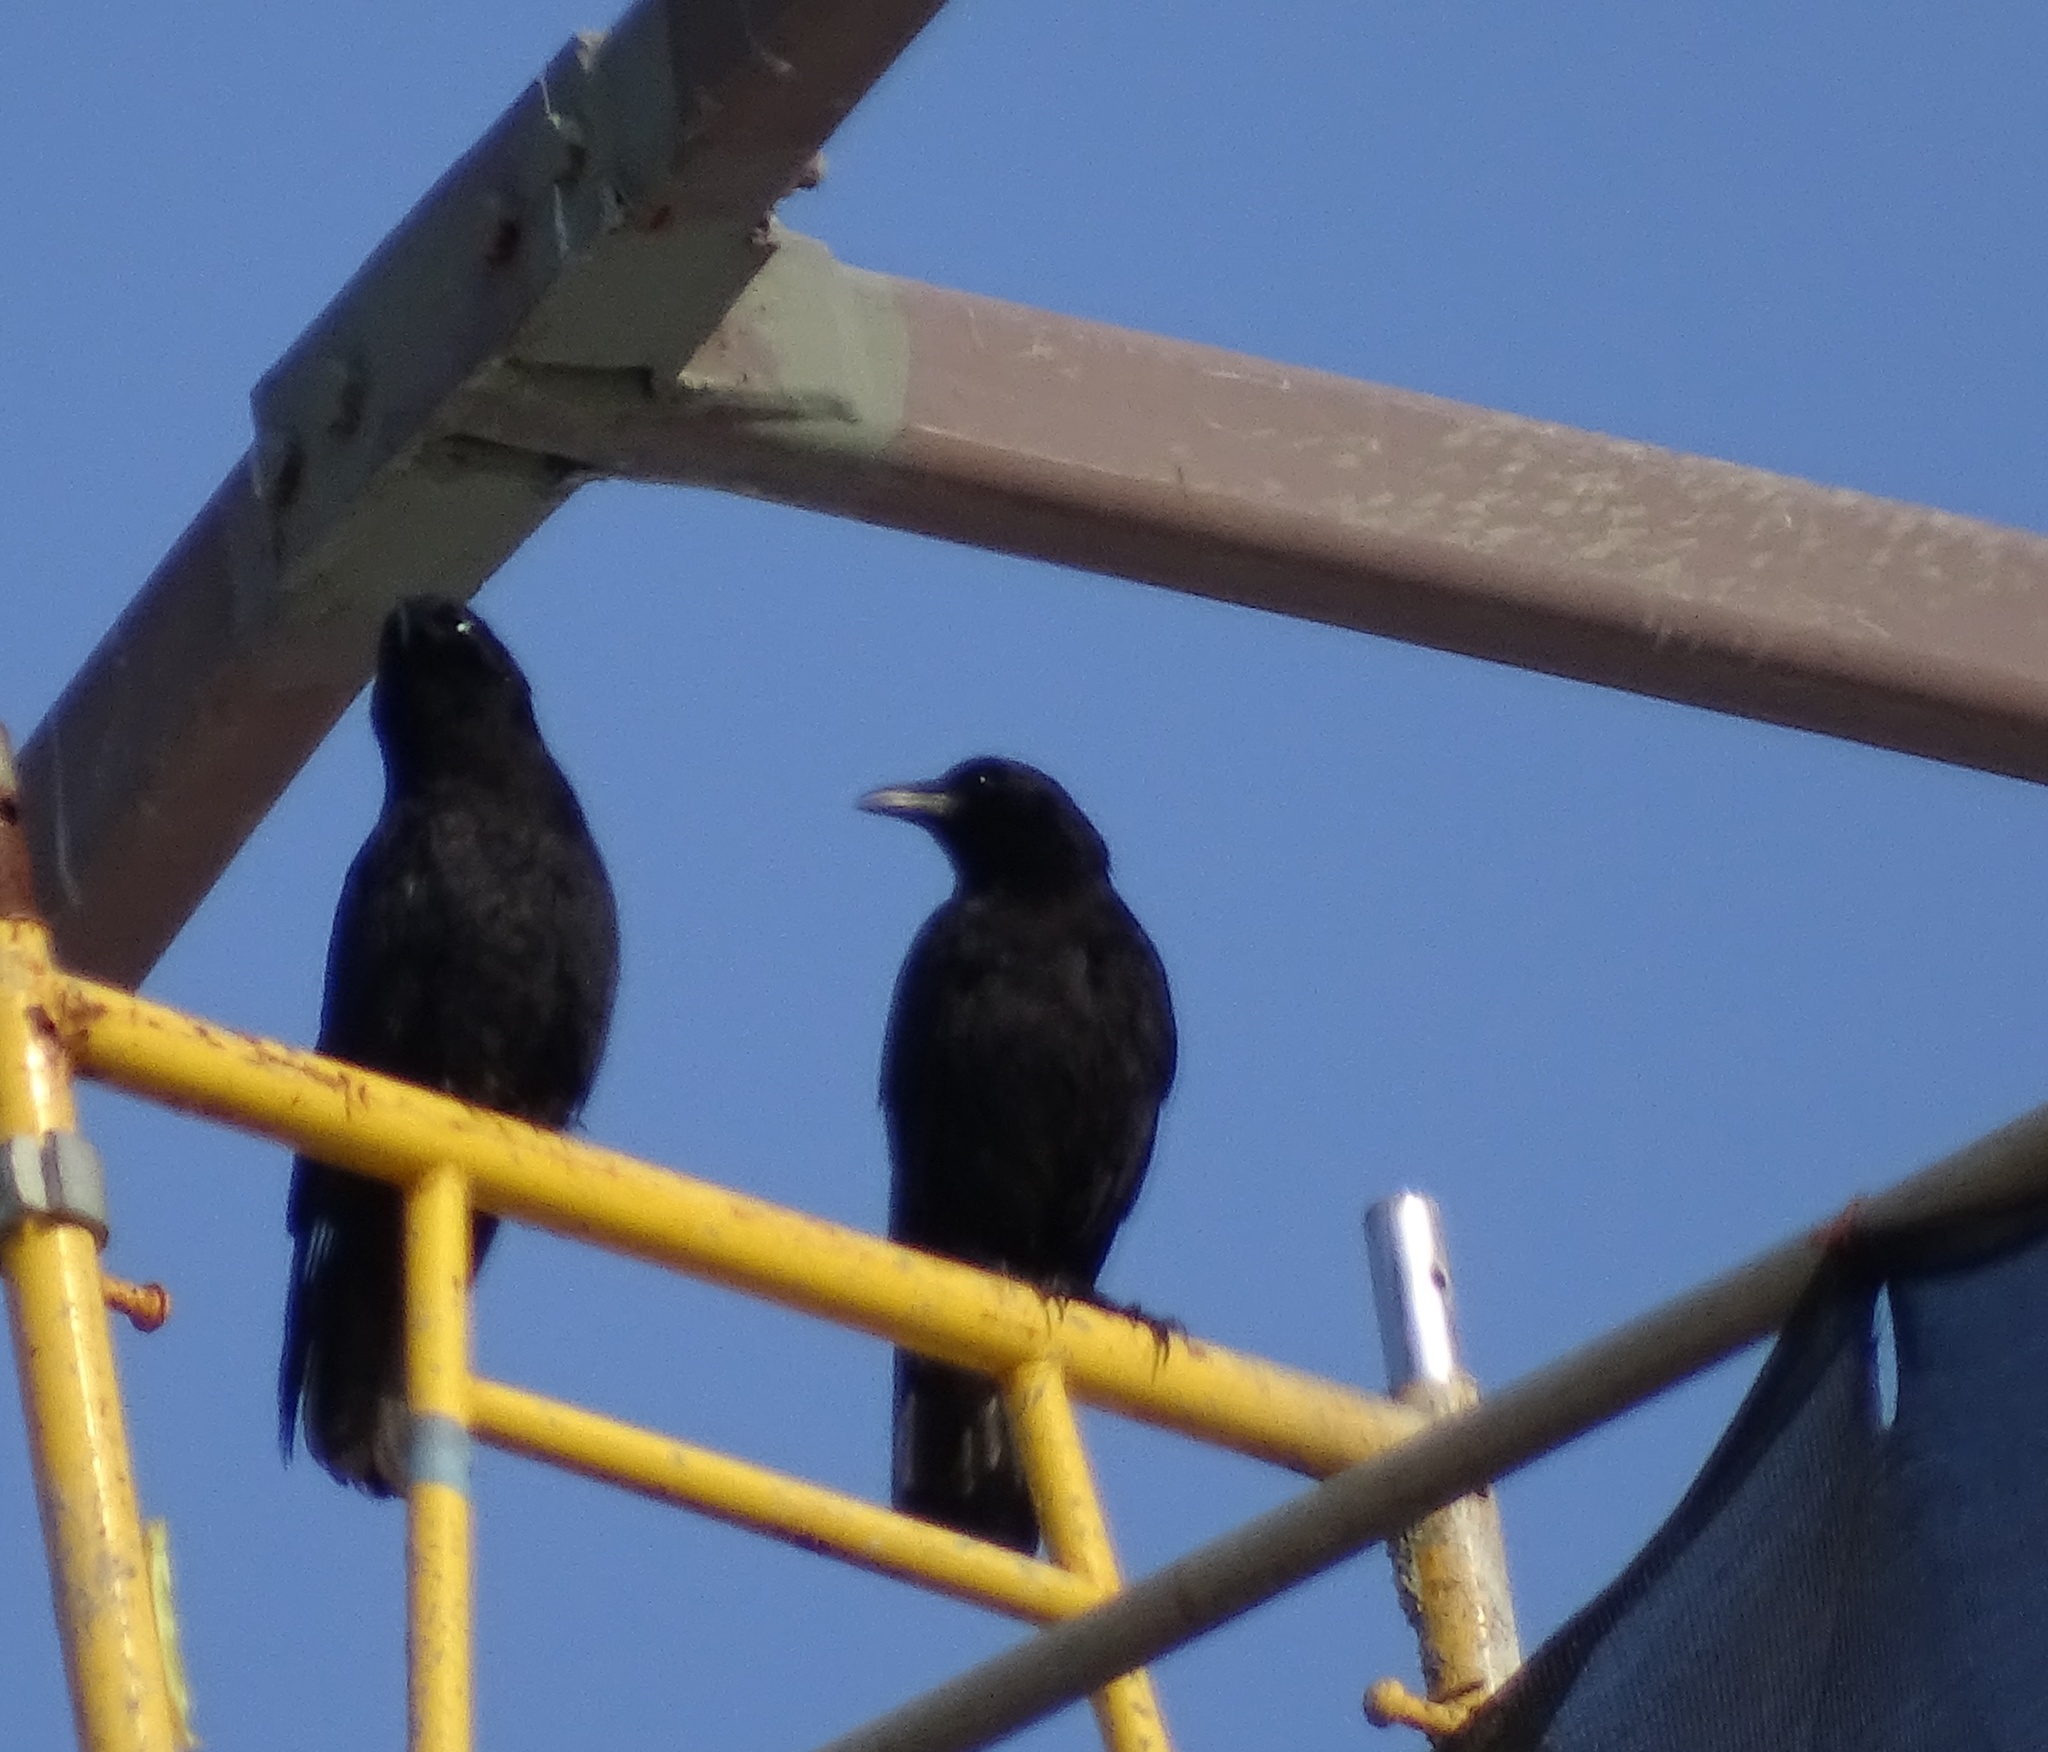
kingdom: Animalia
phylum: Chordata
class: Aves
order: Passeriformes
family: Corvidae
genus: Corvus
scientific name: Corvus brachyrhynchos
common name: American crow
